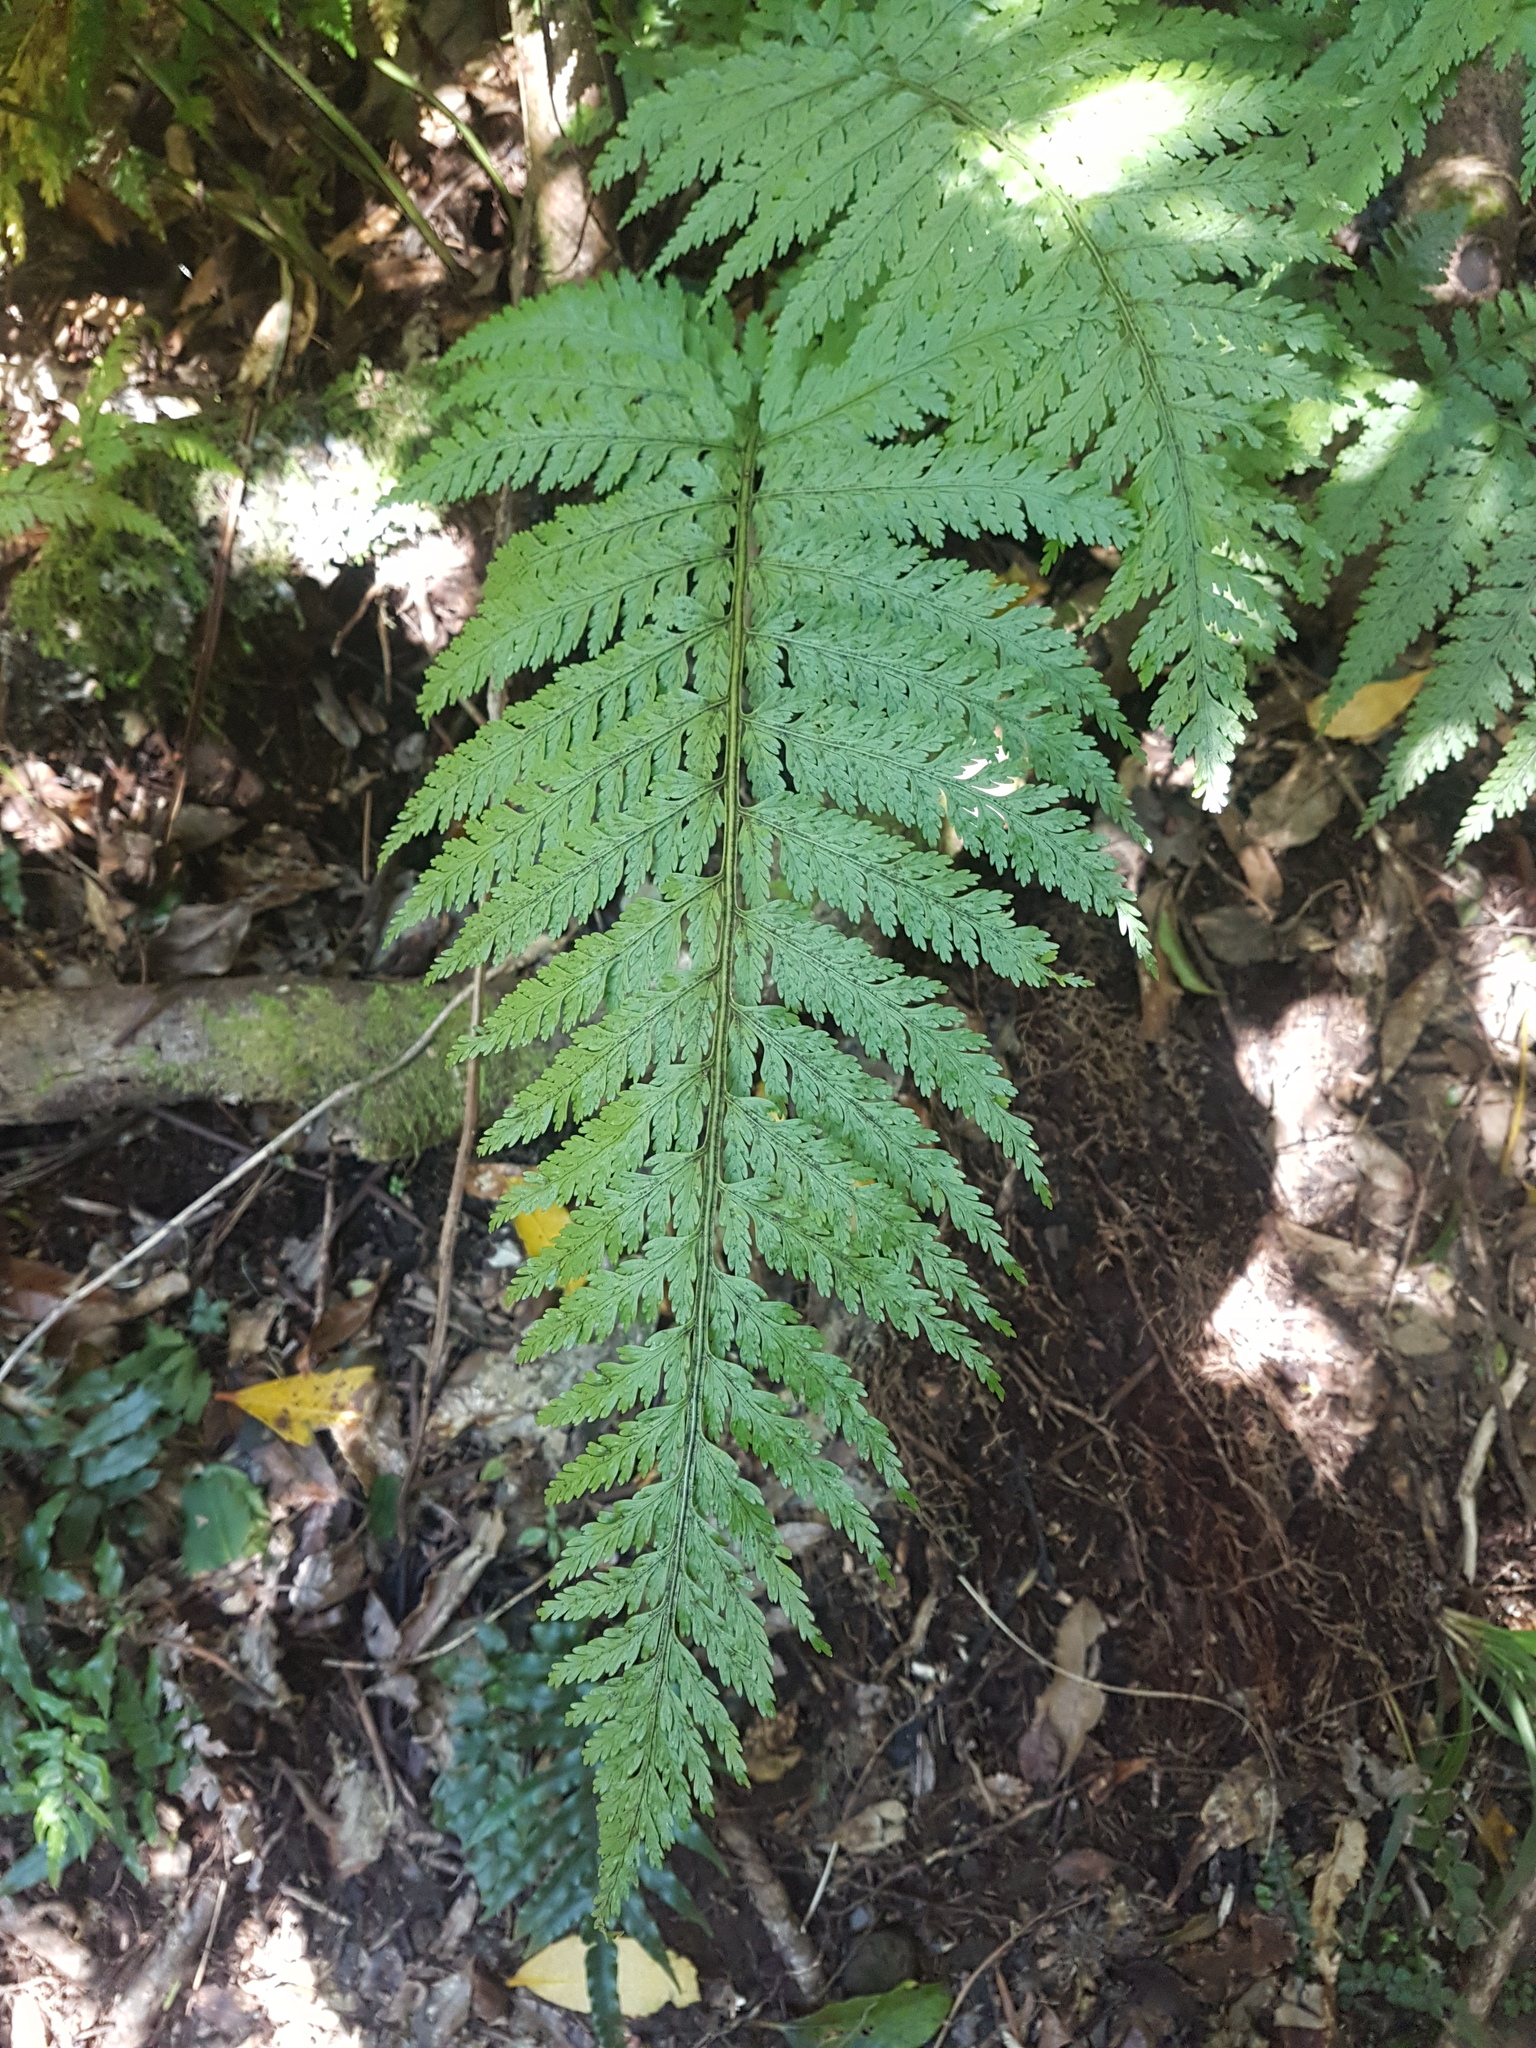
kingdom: Plantae
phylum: Tracheophyta
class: Polypodiopsida
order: Polypodiales
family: Aspleniaceae
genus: Asplenium
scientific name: Asplenium bulbiferum
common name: Mother fern
